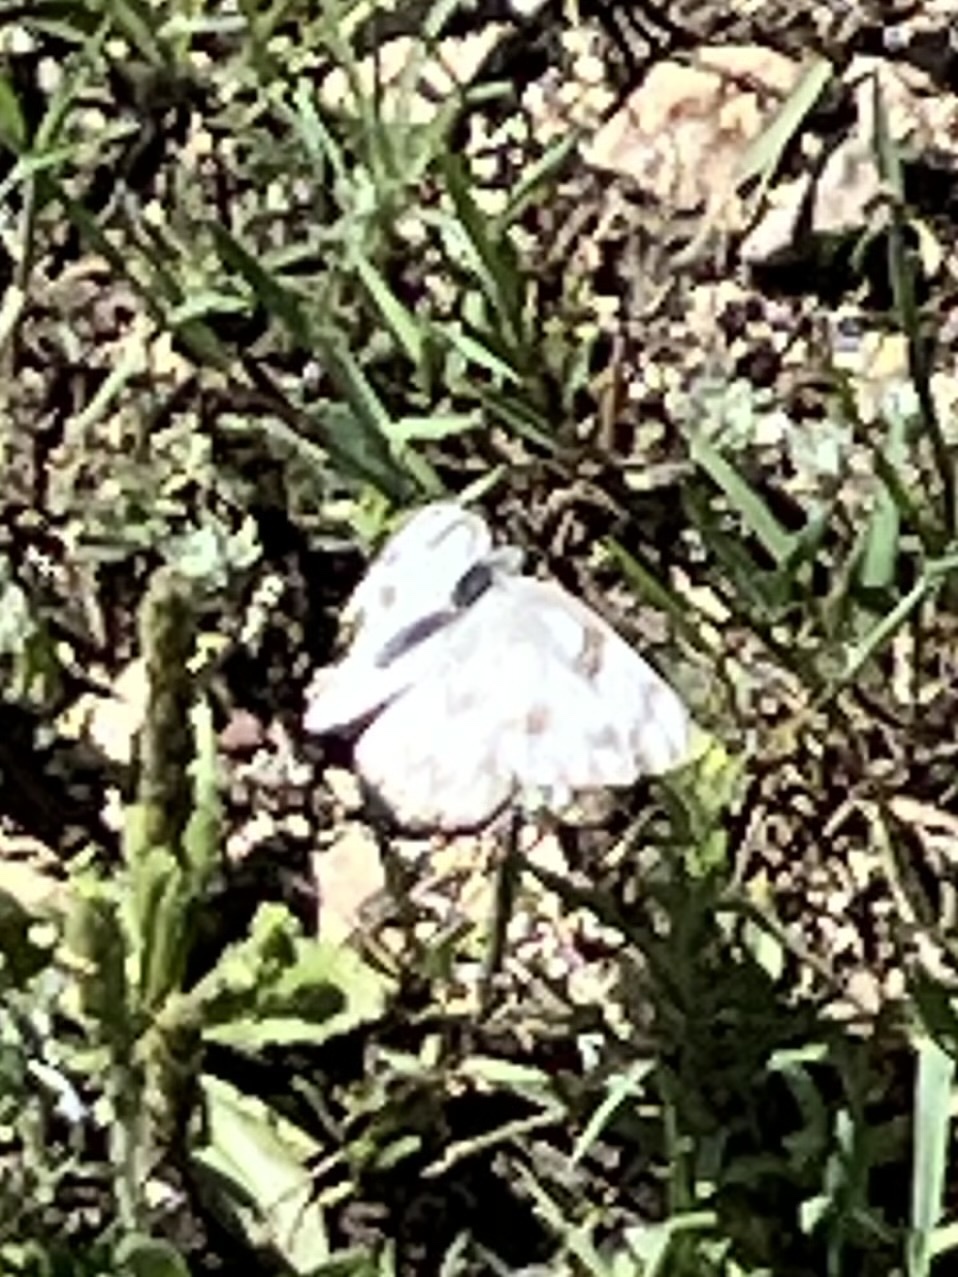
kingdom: Animalia
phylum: Arthropoda
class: Insecta
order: Lepidoptera
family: Pieridae
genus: Pontia
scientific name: Pontia protodice
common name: Checkered white
